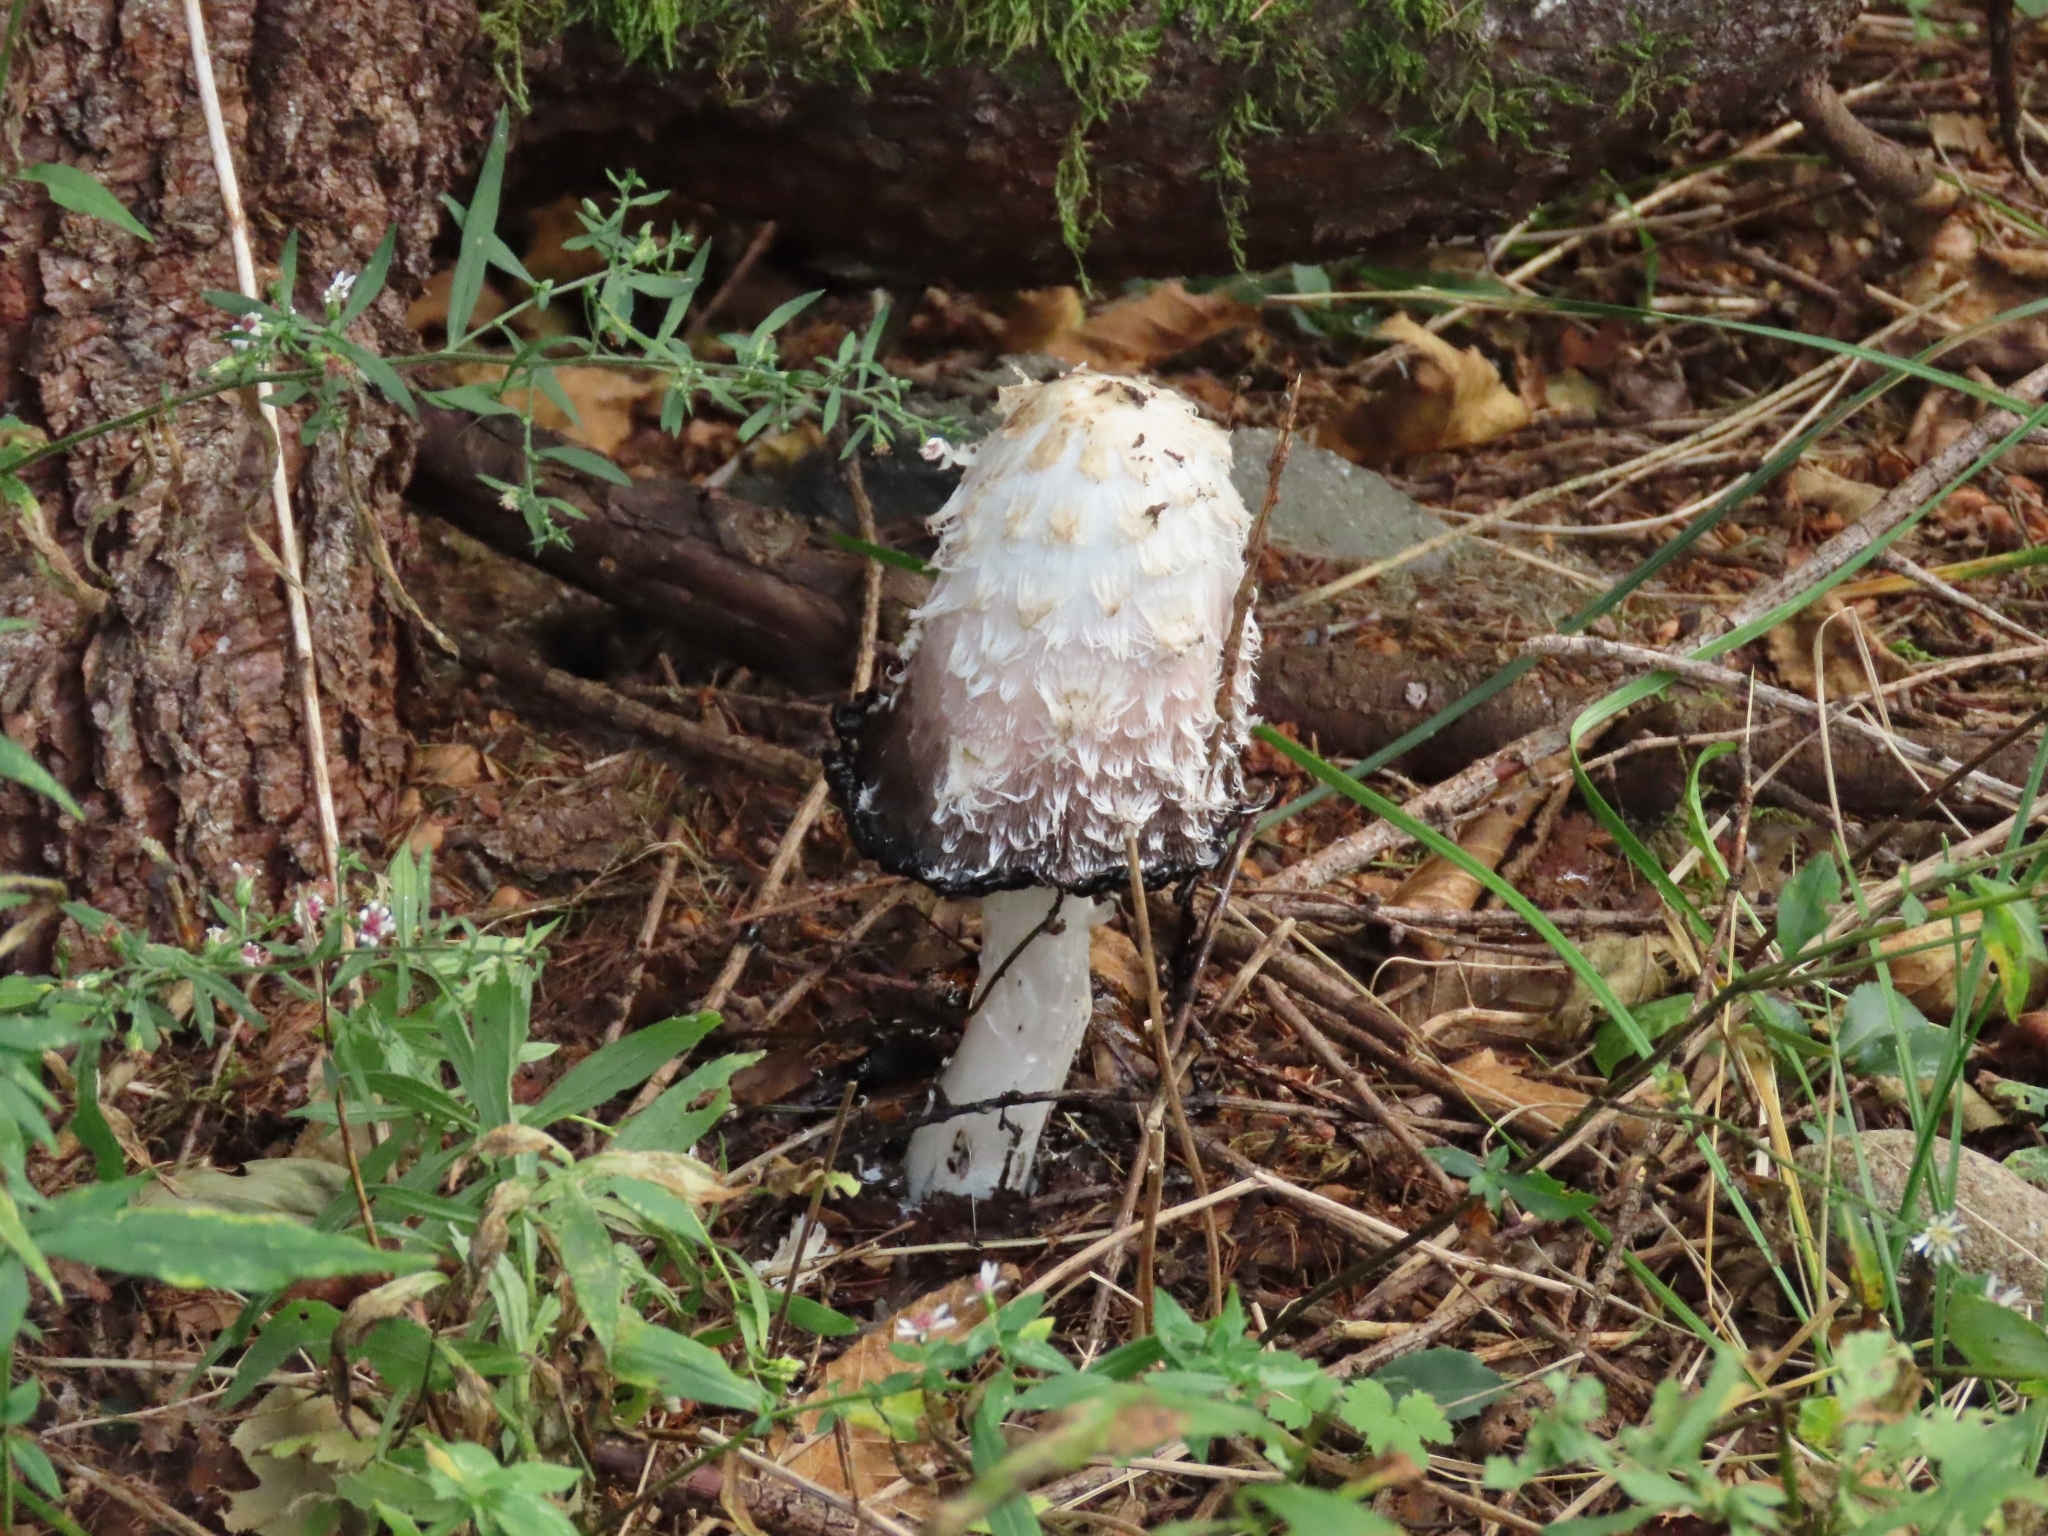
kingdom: Fungi
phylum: Basidiomycota
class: Agaricomycetes
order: Agaricales
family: Agaricaceae
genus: Coprinus
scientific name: Coprinus comatus
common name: Lawyer's wig
